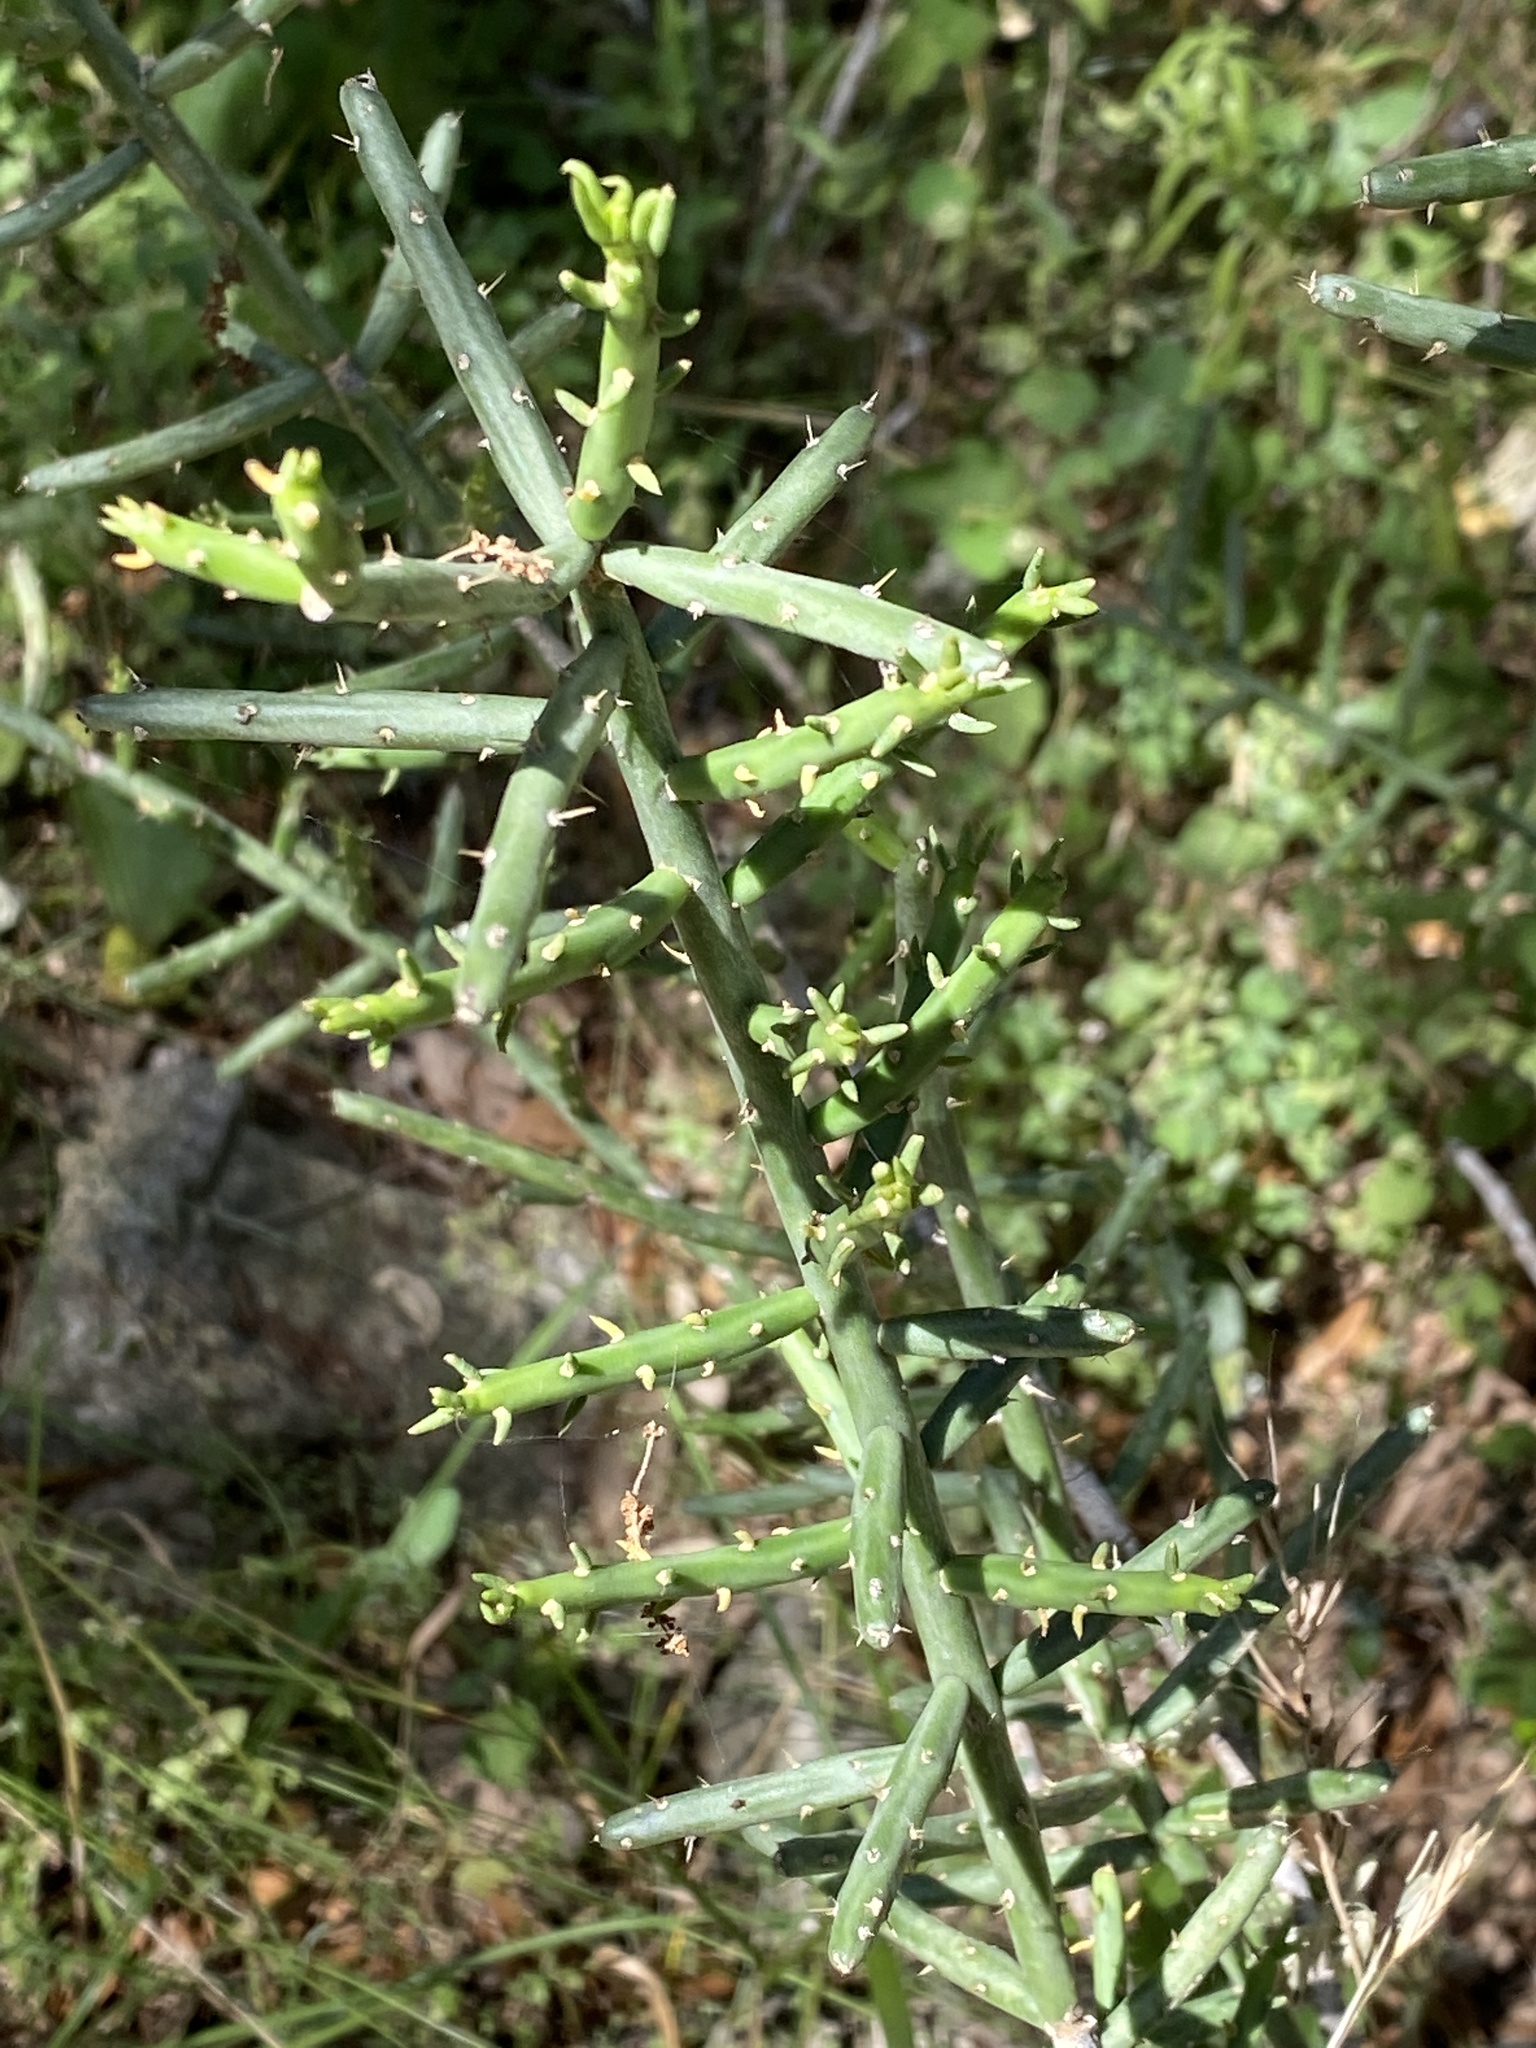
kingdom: Plantae
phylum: Tracheophyta
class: Magnoliopsida
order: Caryophyllales
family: Cactaceae
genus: Cylindropuntia
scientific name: Cylindropuntia leptocaulis
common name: Christmas cactus
